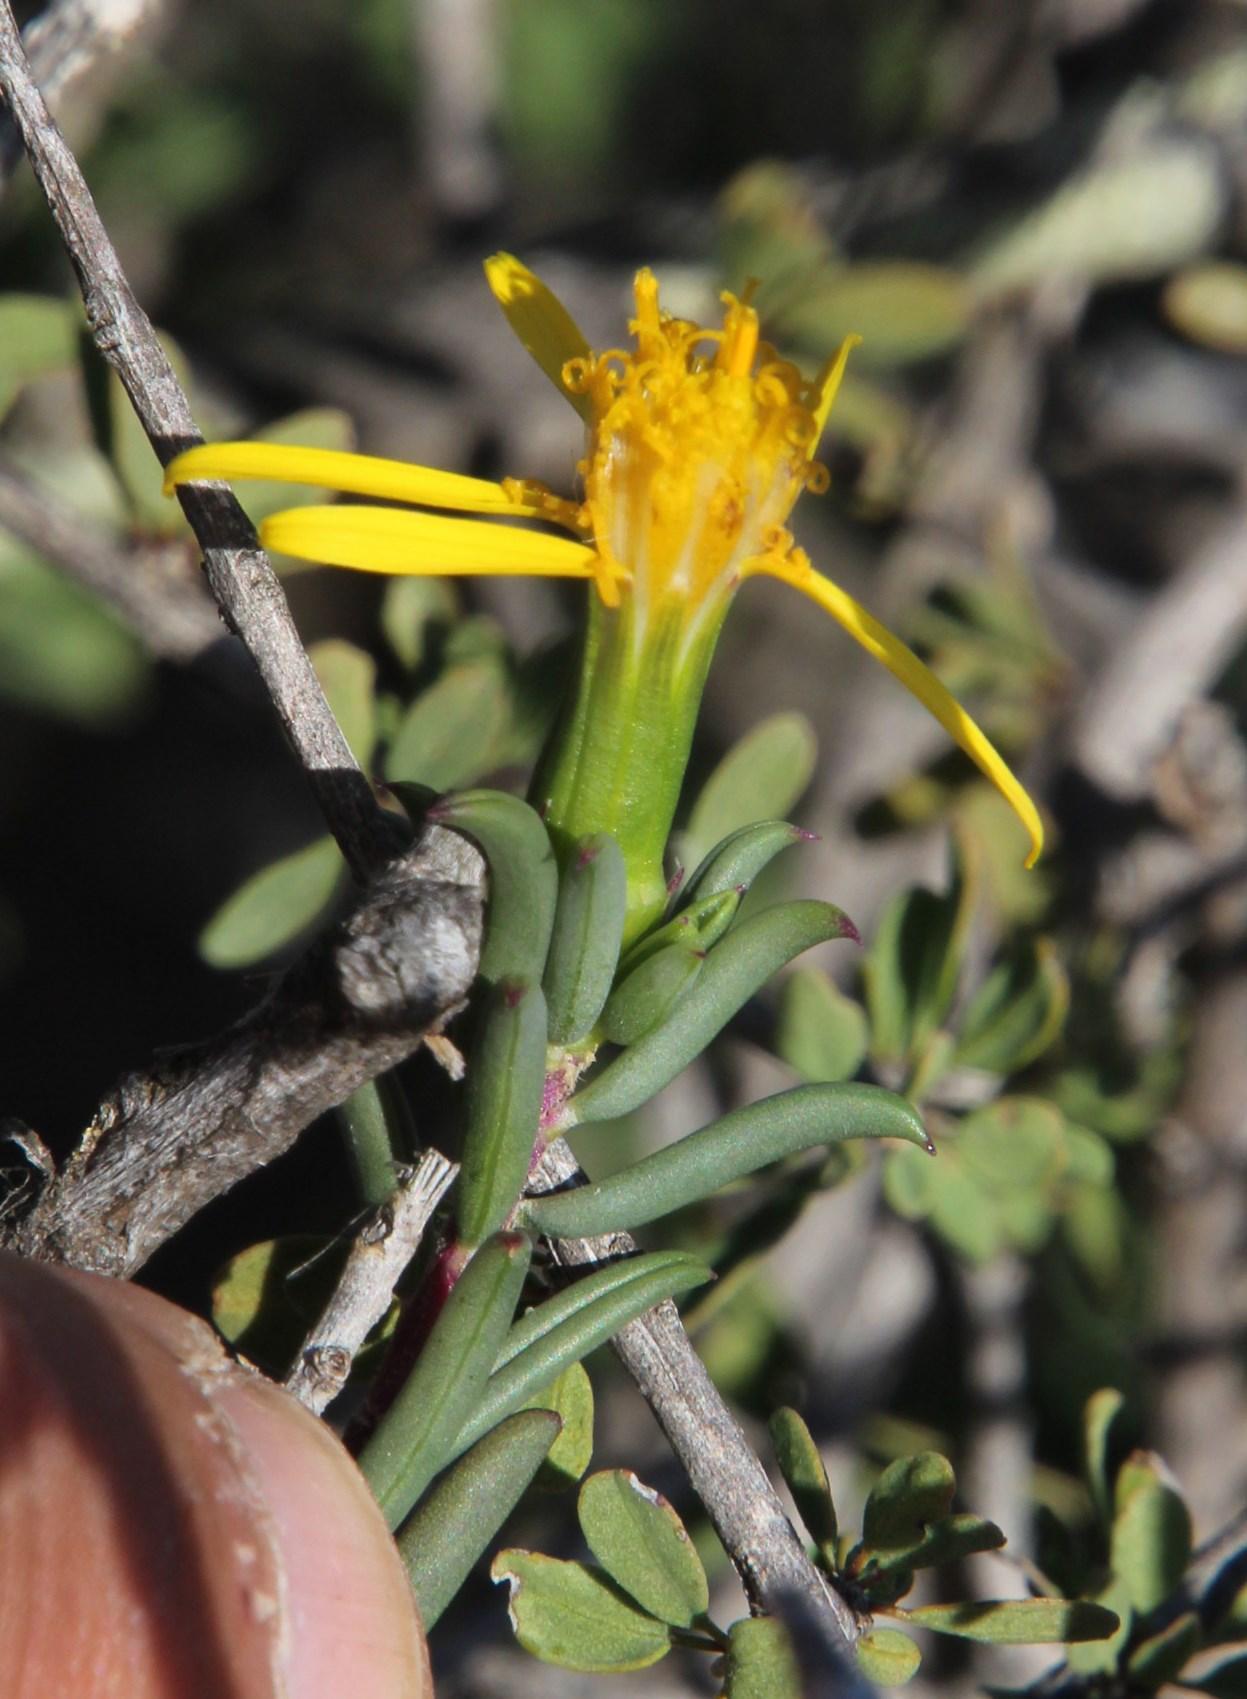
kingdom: Plantae
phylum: Tracheophyta
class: Magnoliopsida
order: Asterales
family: Asteraceae
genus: Senecio
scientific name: Senecio acutifolius
